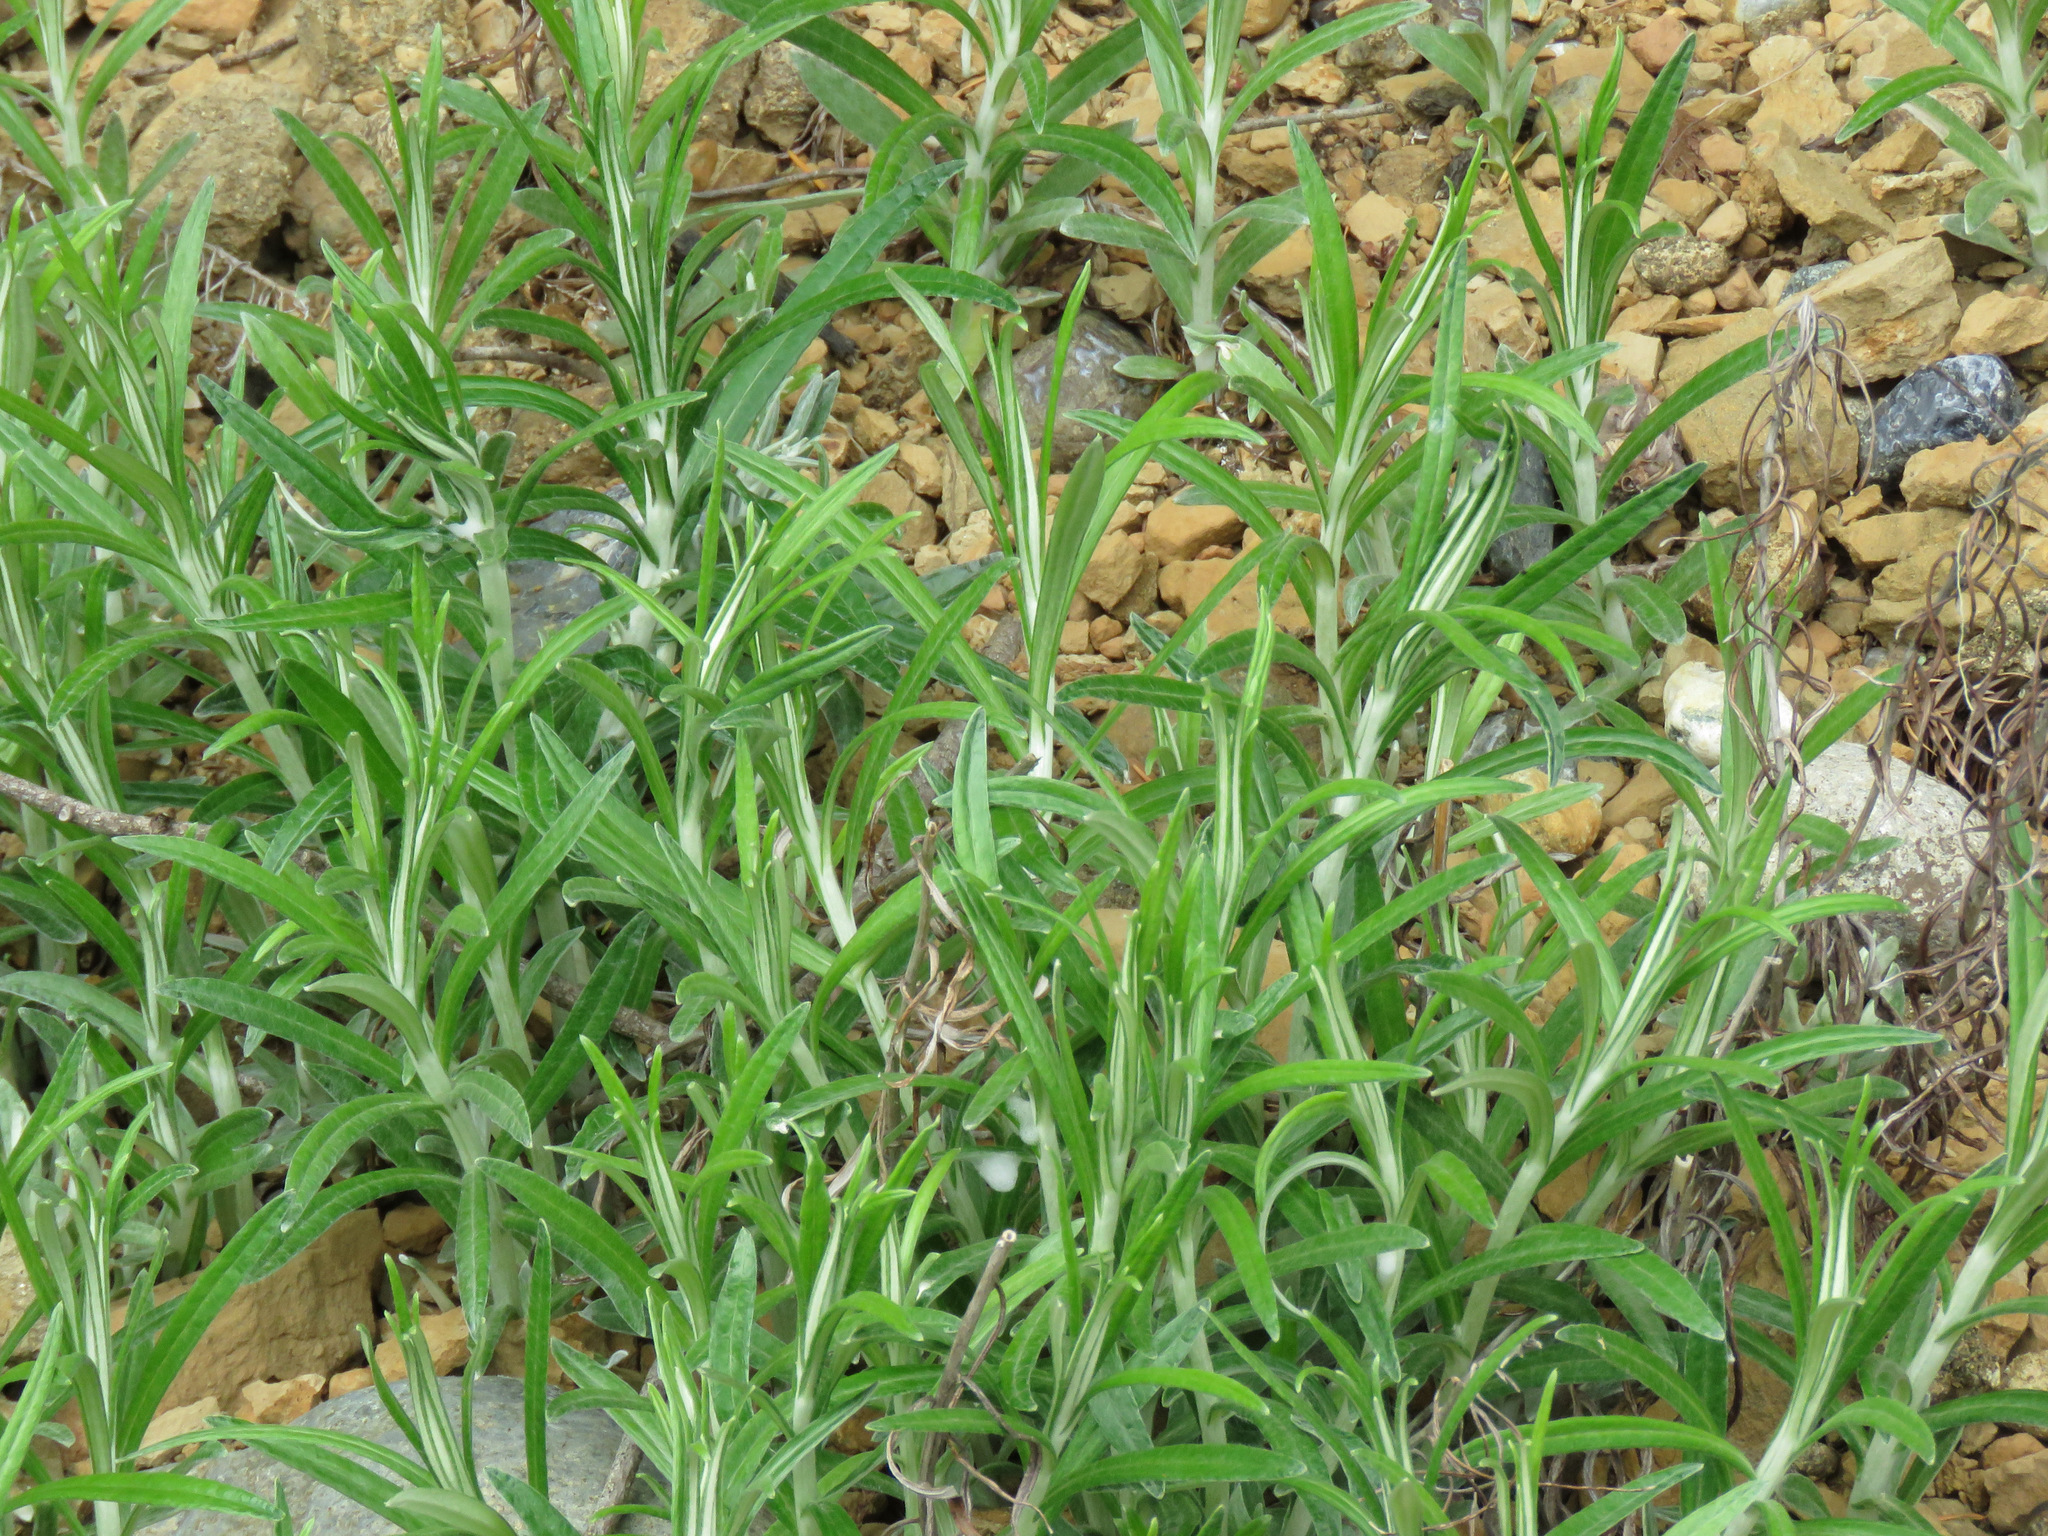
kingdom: Plantae
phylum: Tracheophyta
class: Magnoliopsida
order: Asterales
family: Asteraceae
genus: Anaphalis
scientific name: Anaphalis margaritacea
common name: Pearly everlasting
